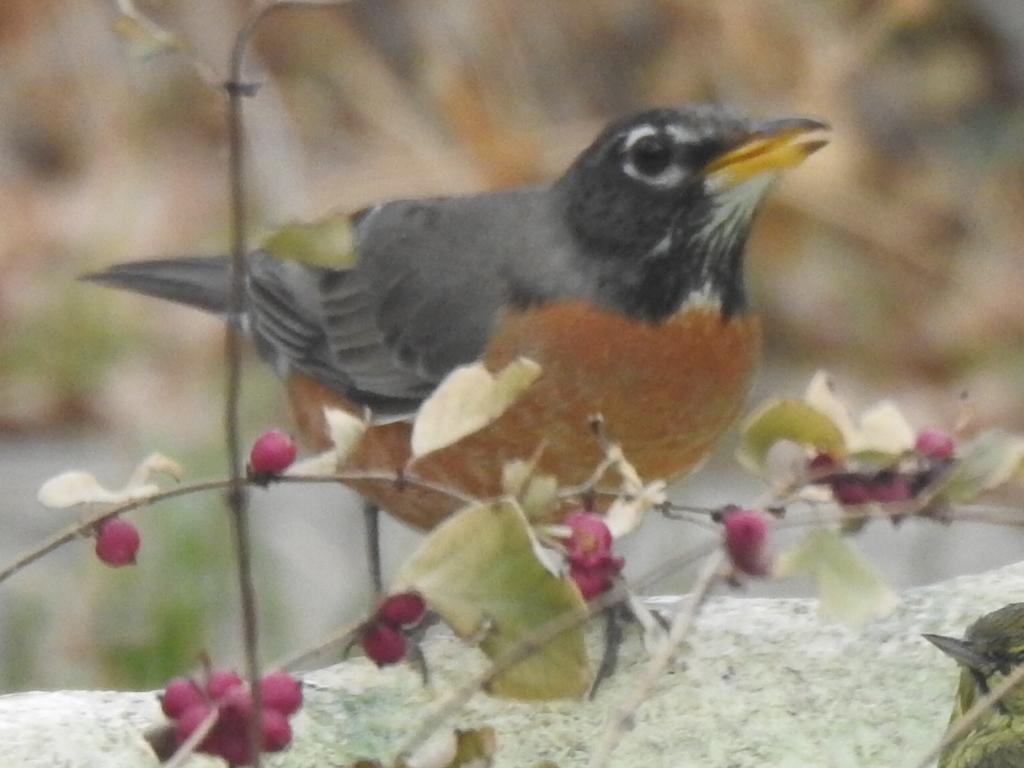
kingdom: Animalia
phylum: Chordata
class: Aves
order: Passeriformes
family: Turdidae
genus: Turdus
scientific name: Turdus migratorius
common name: American robin
